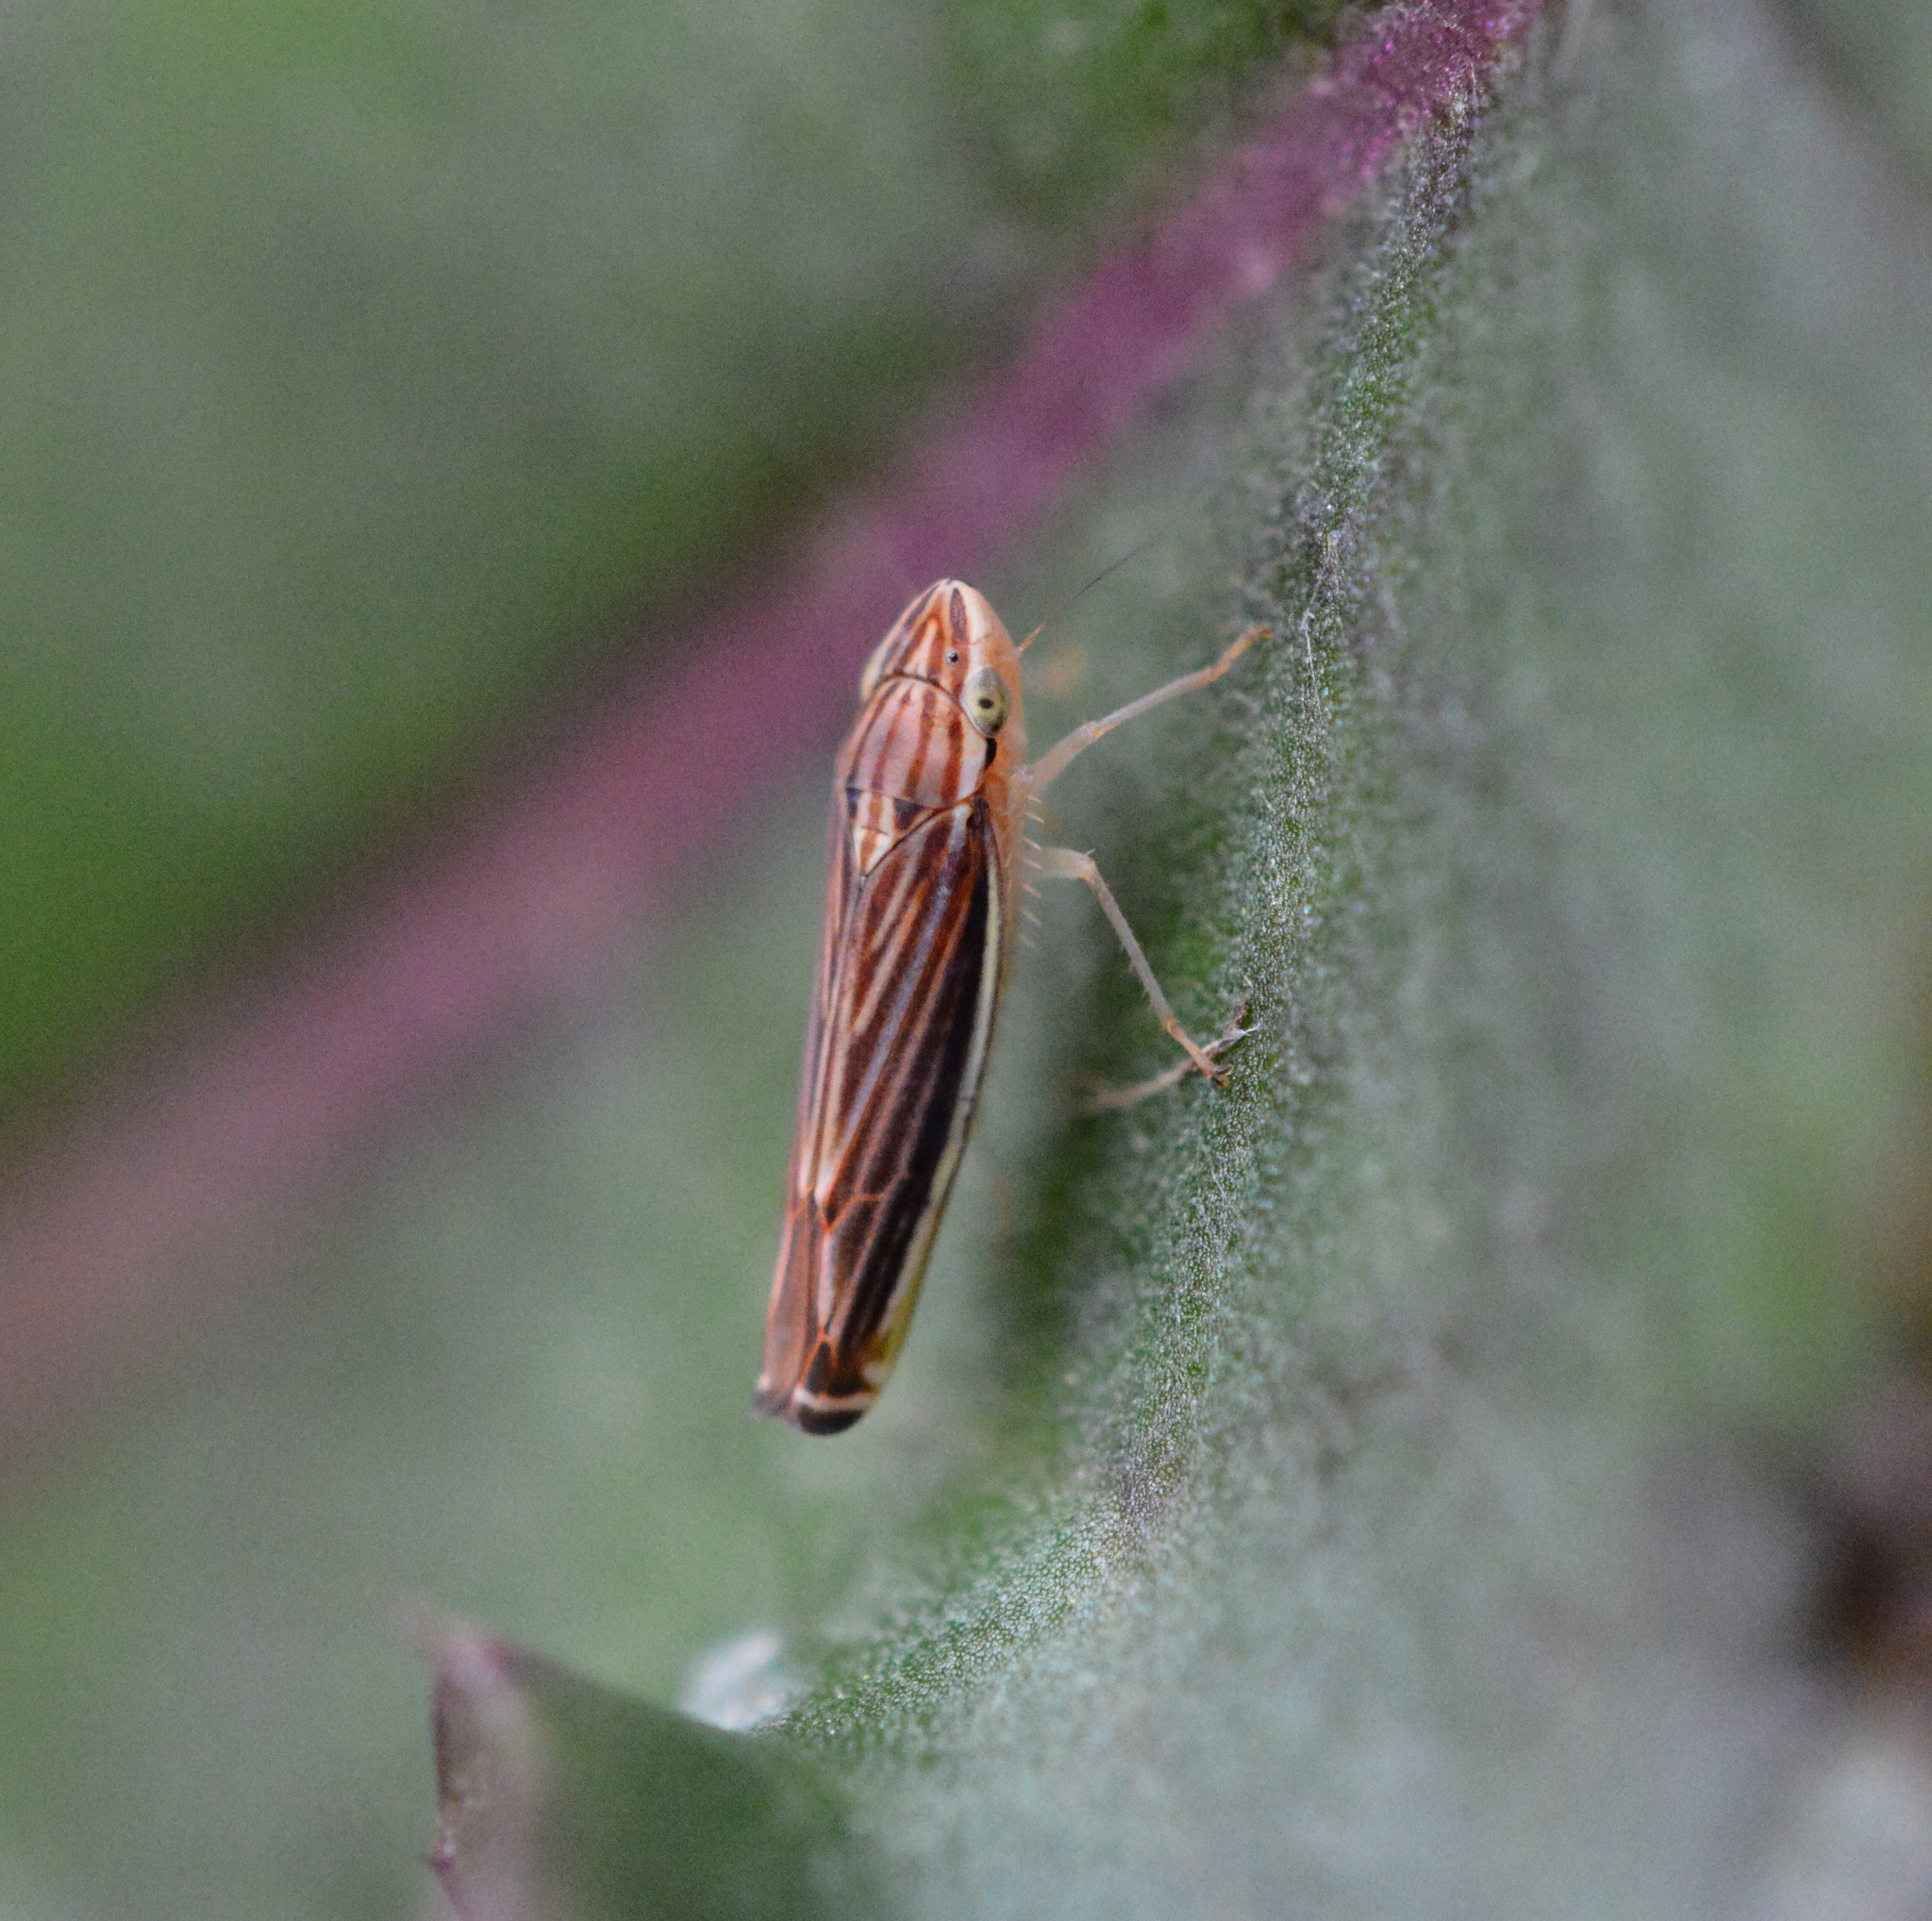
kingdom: Animalia
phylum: Arthropoda
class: Insecta
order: Hemiptera
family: Cicadellidae
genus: Sibovia
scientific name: Sibovia occatoria
